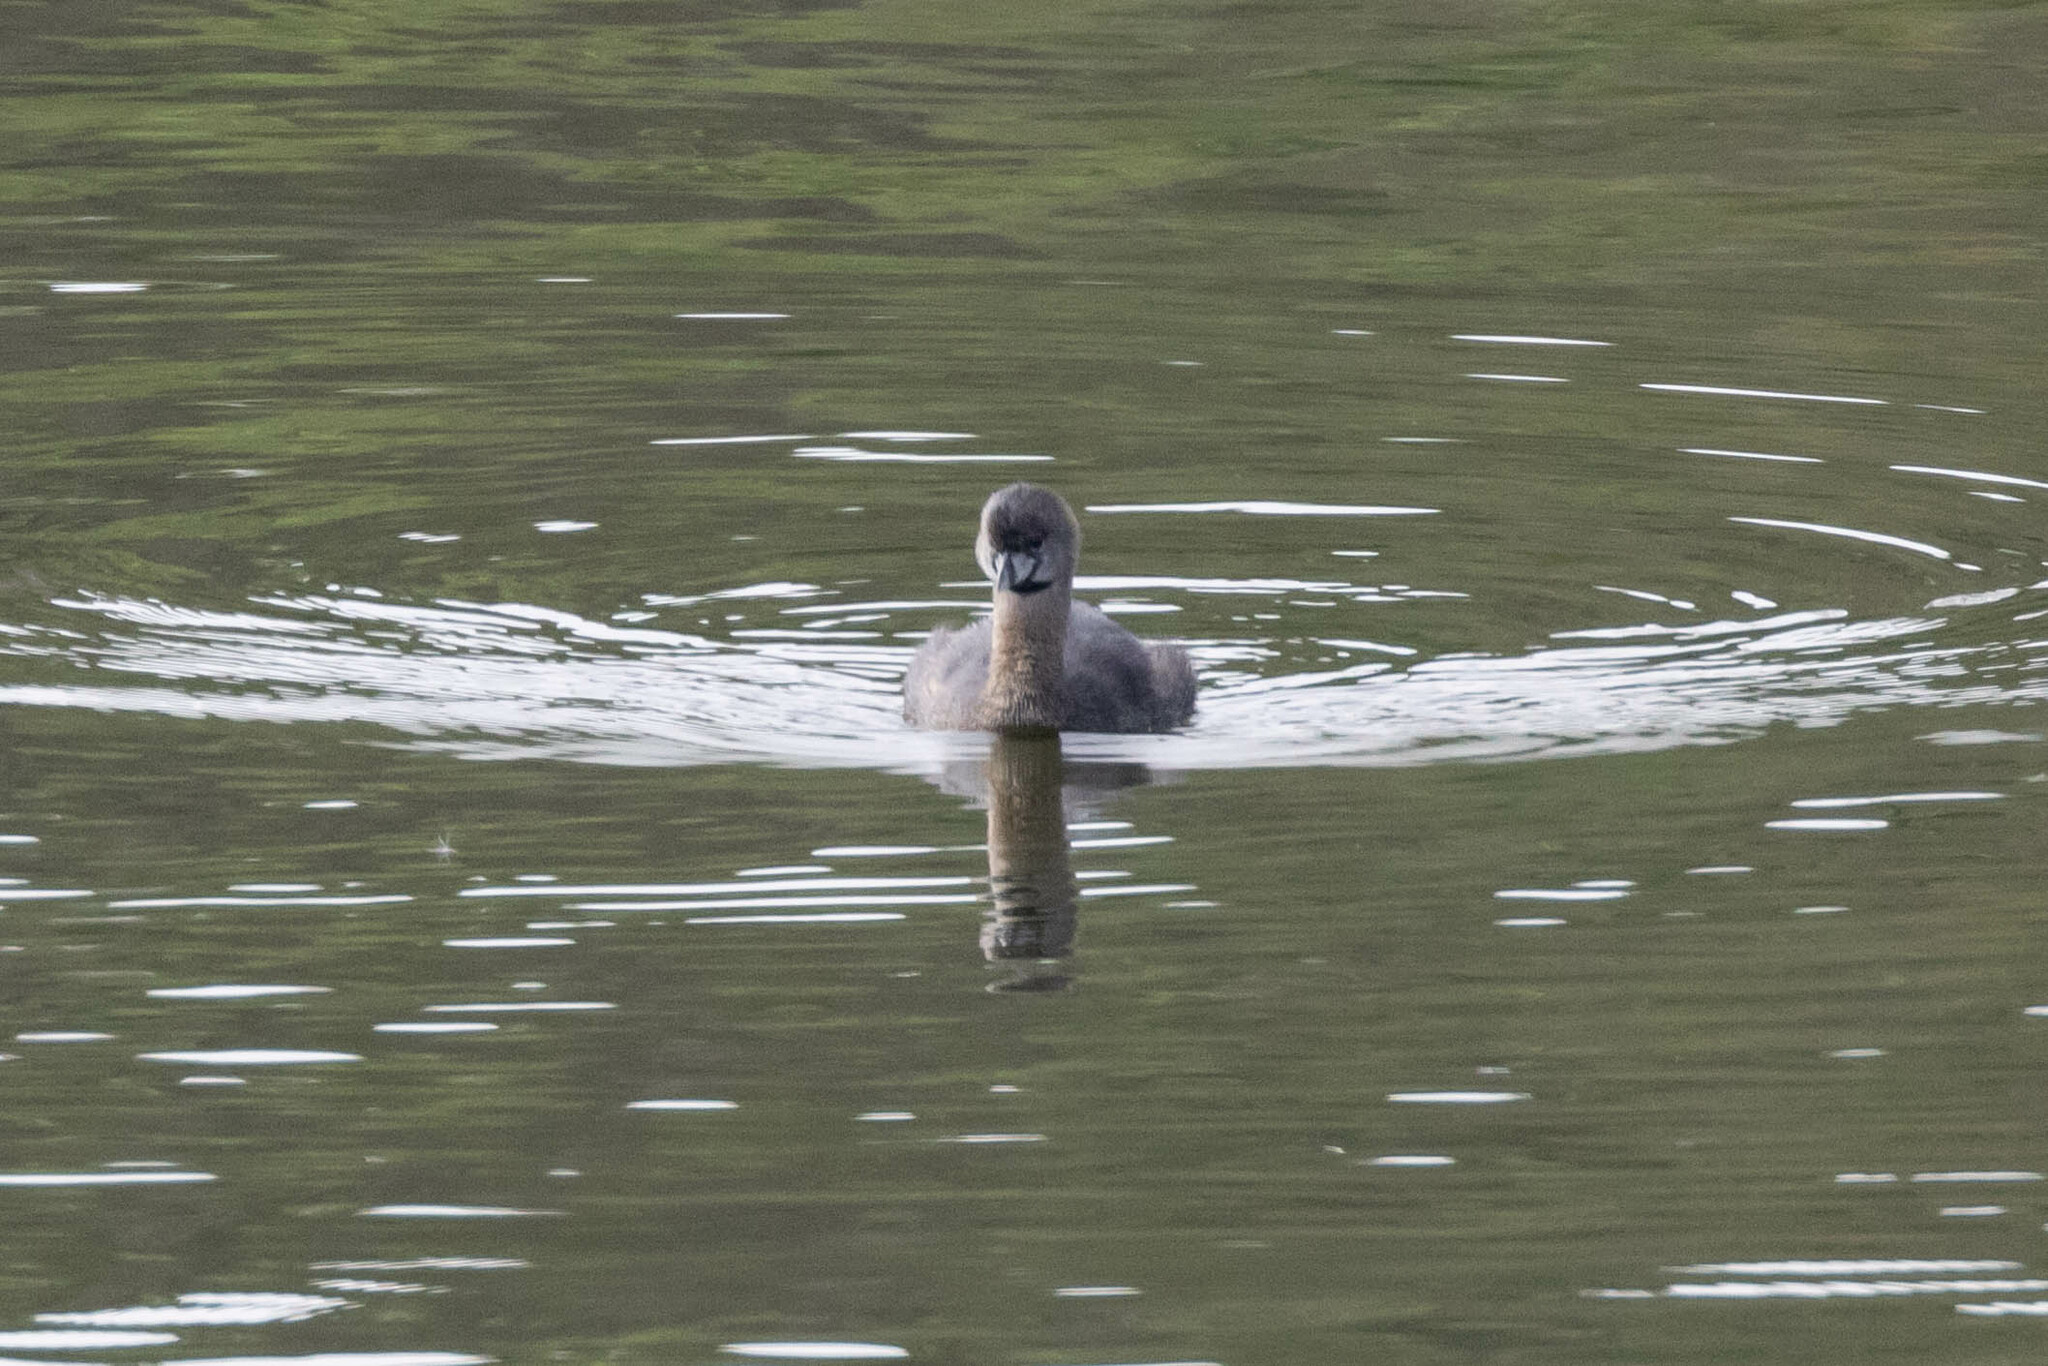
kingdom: Animalia
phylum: Chordata
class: Aves
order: Podicipediformes
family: Podicipedidae
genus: Podilymbus
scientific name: Podilymbus podiceps
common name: Pied-billed grebe
